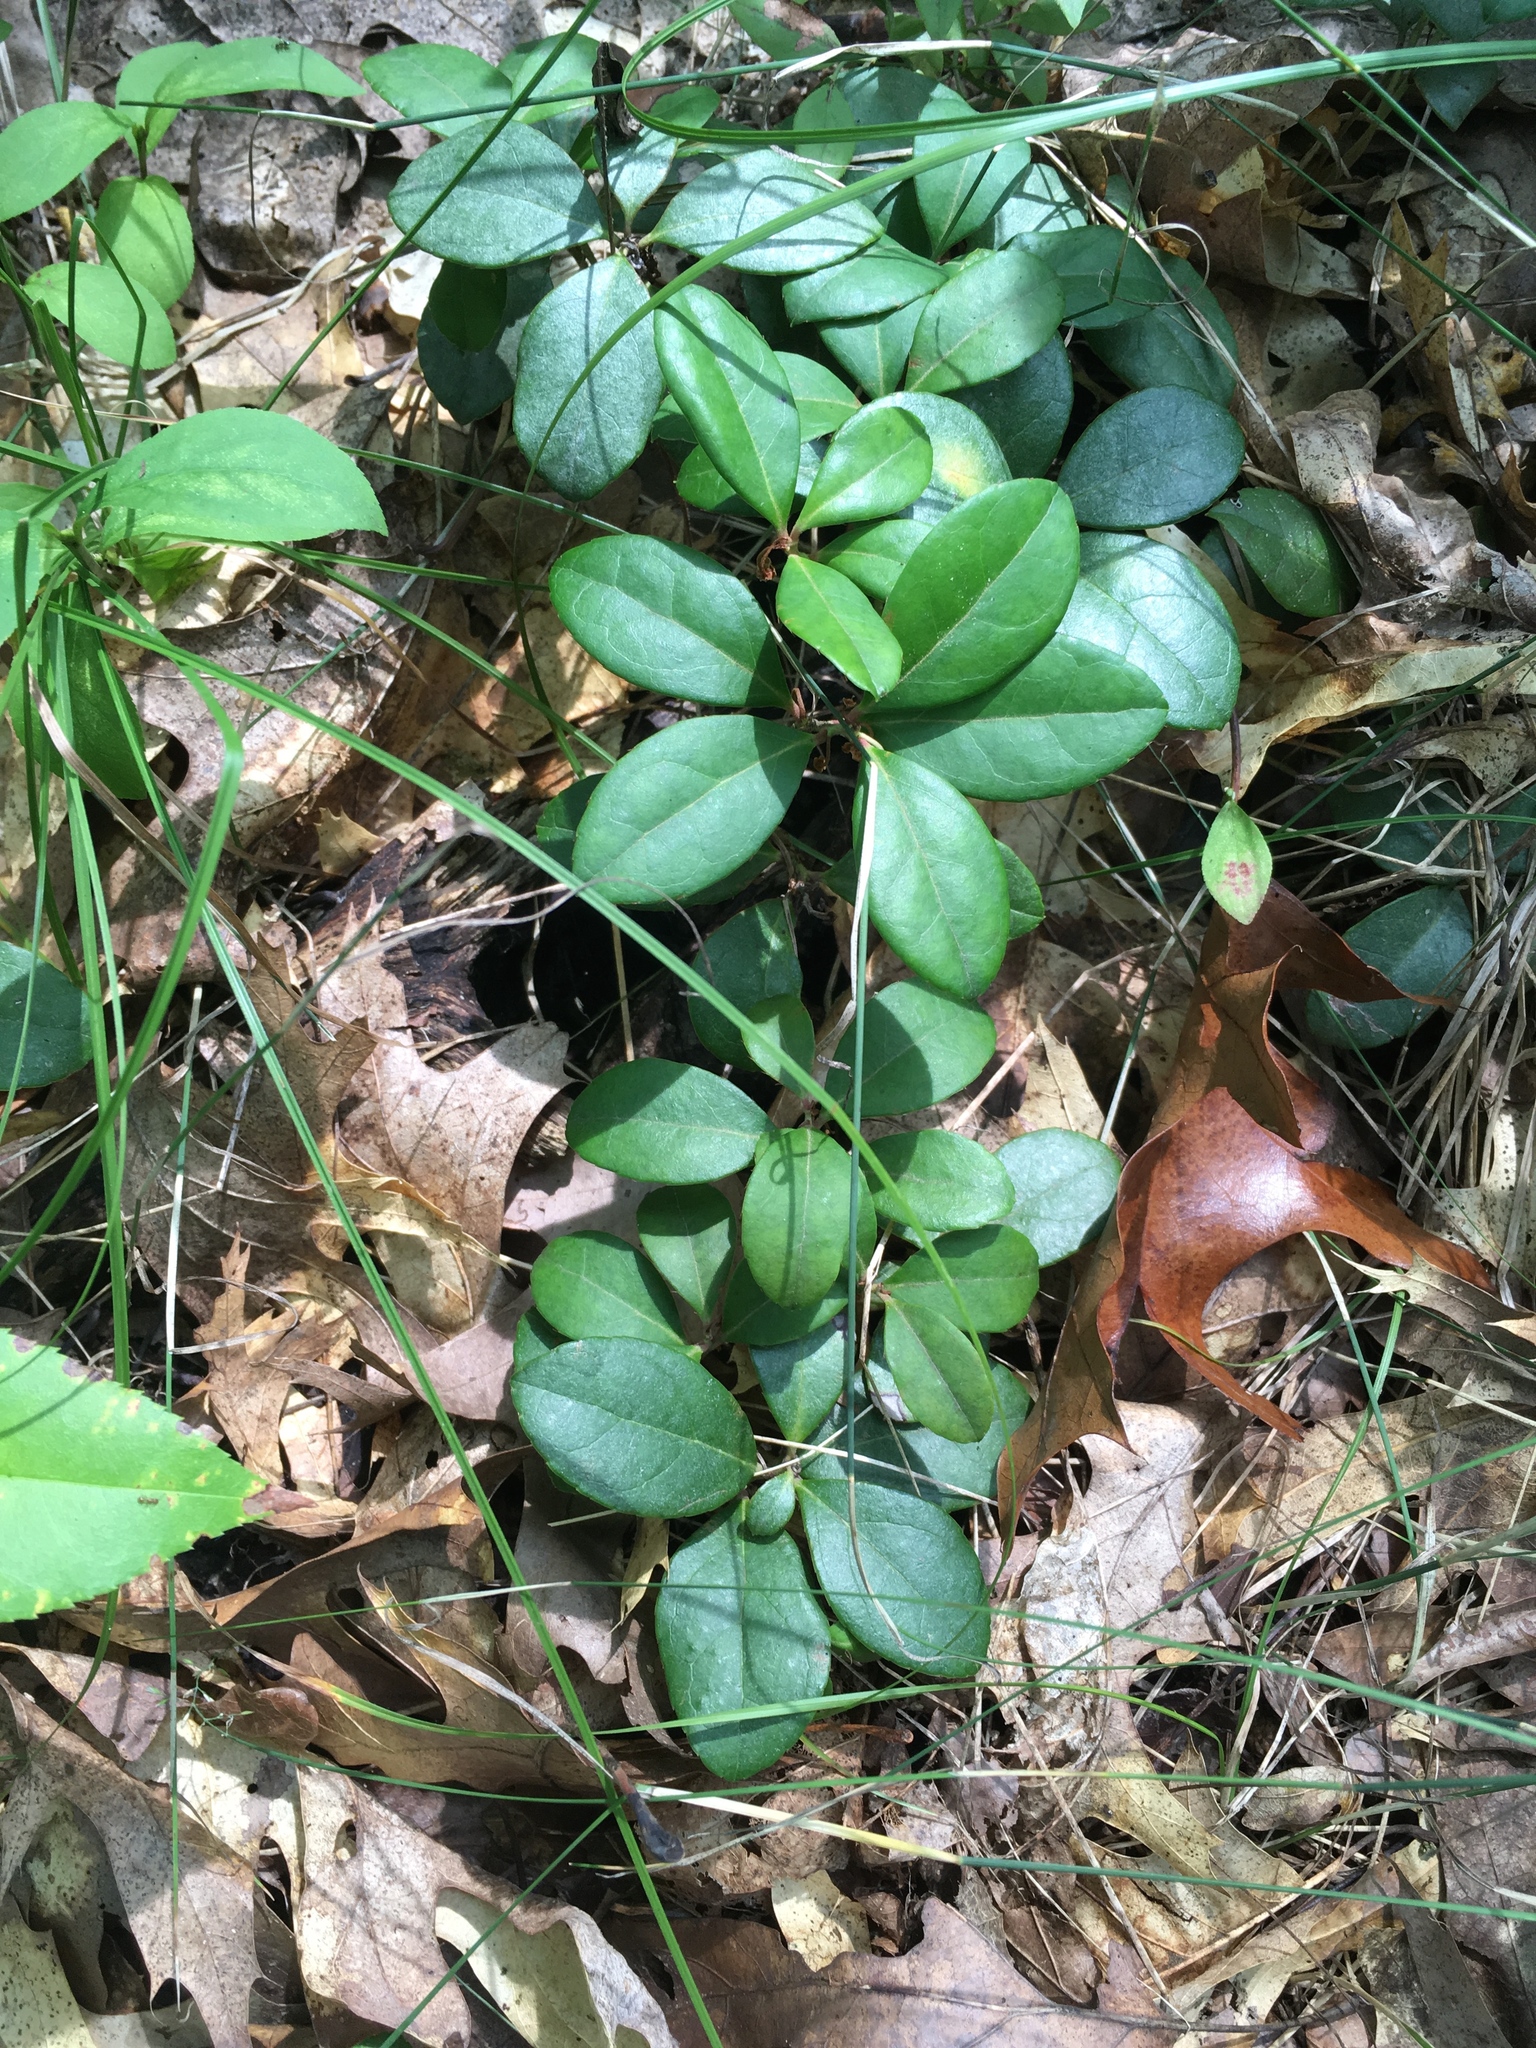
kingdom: Plantae
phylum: Tracheophyta
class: Magnoliopsida
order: Ericales
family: Ericaceae
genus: Gaultheria
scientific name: Gaultheria procumbens
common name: Checkerberry
